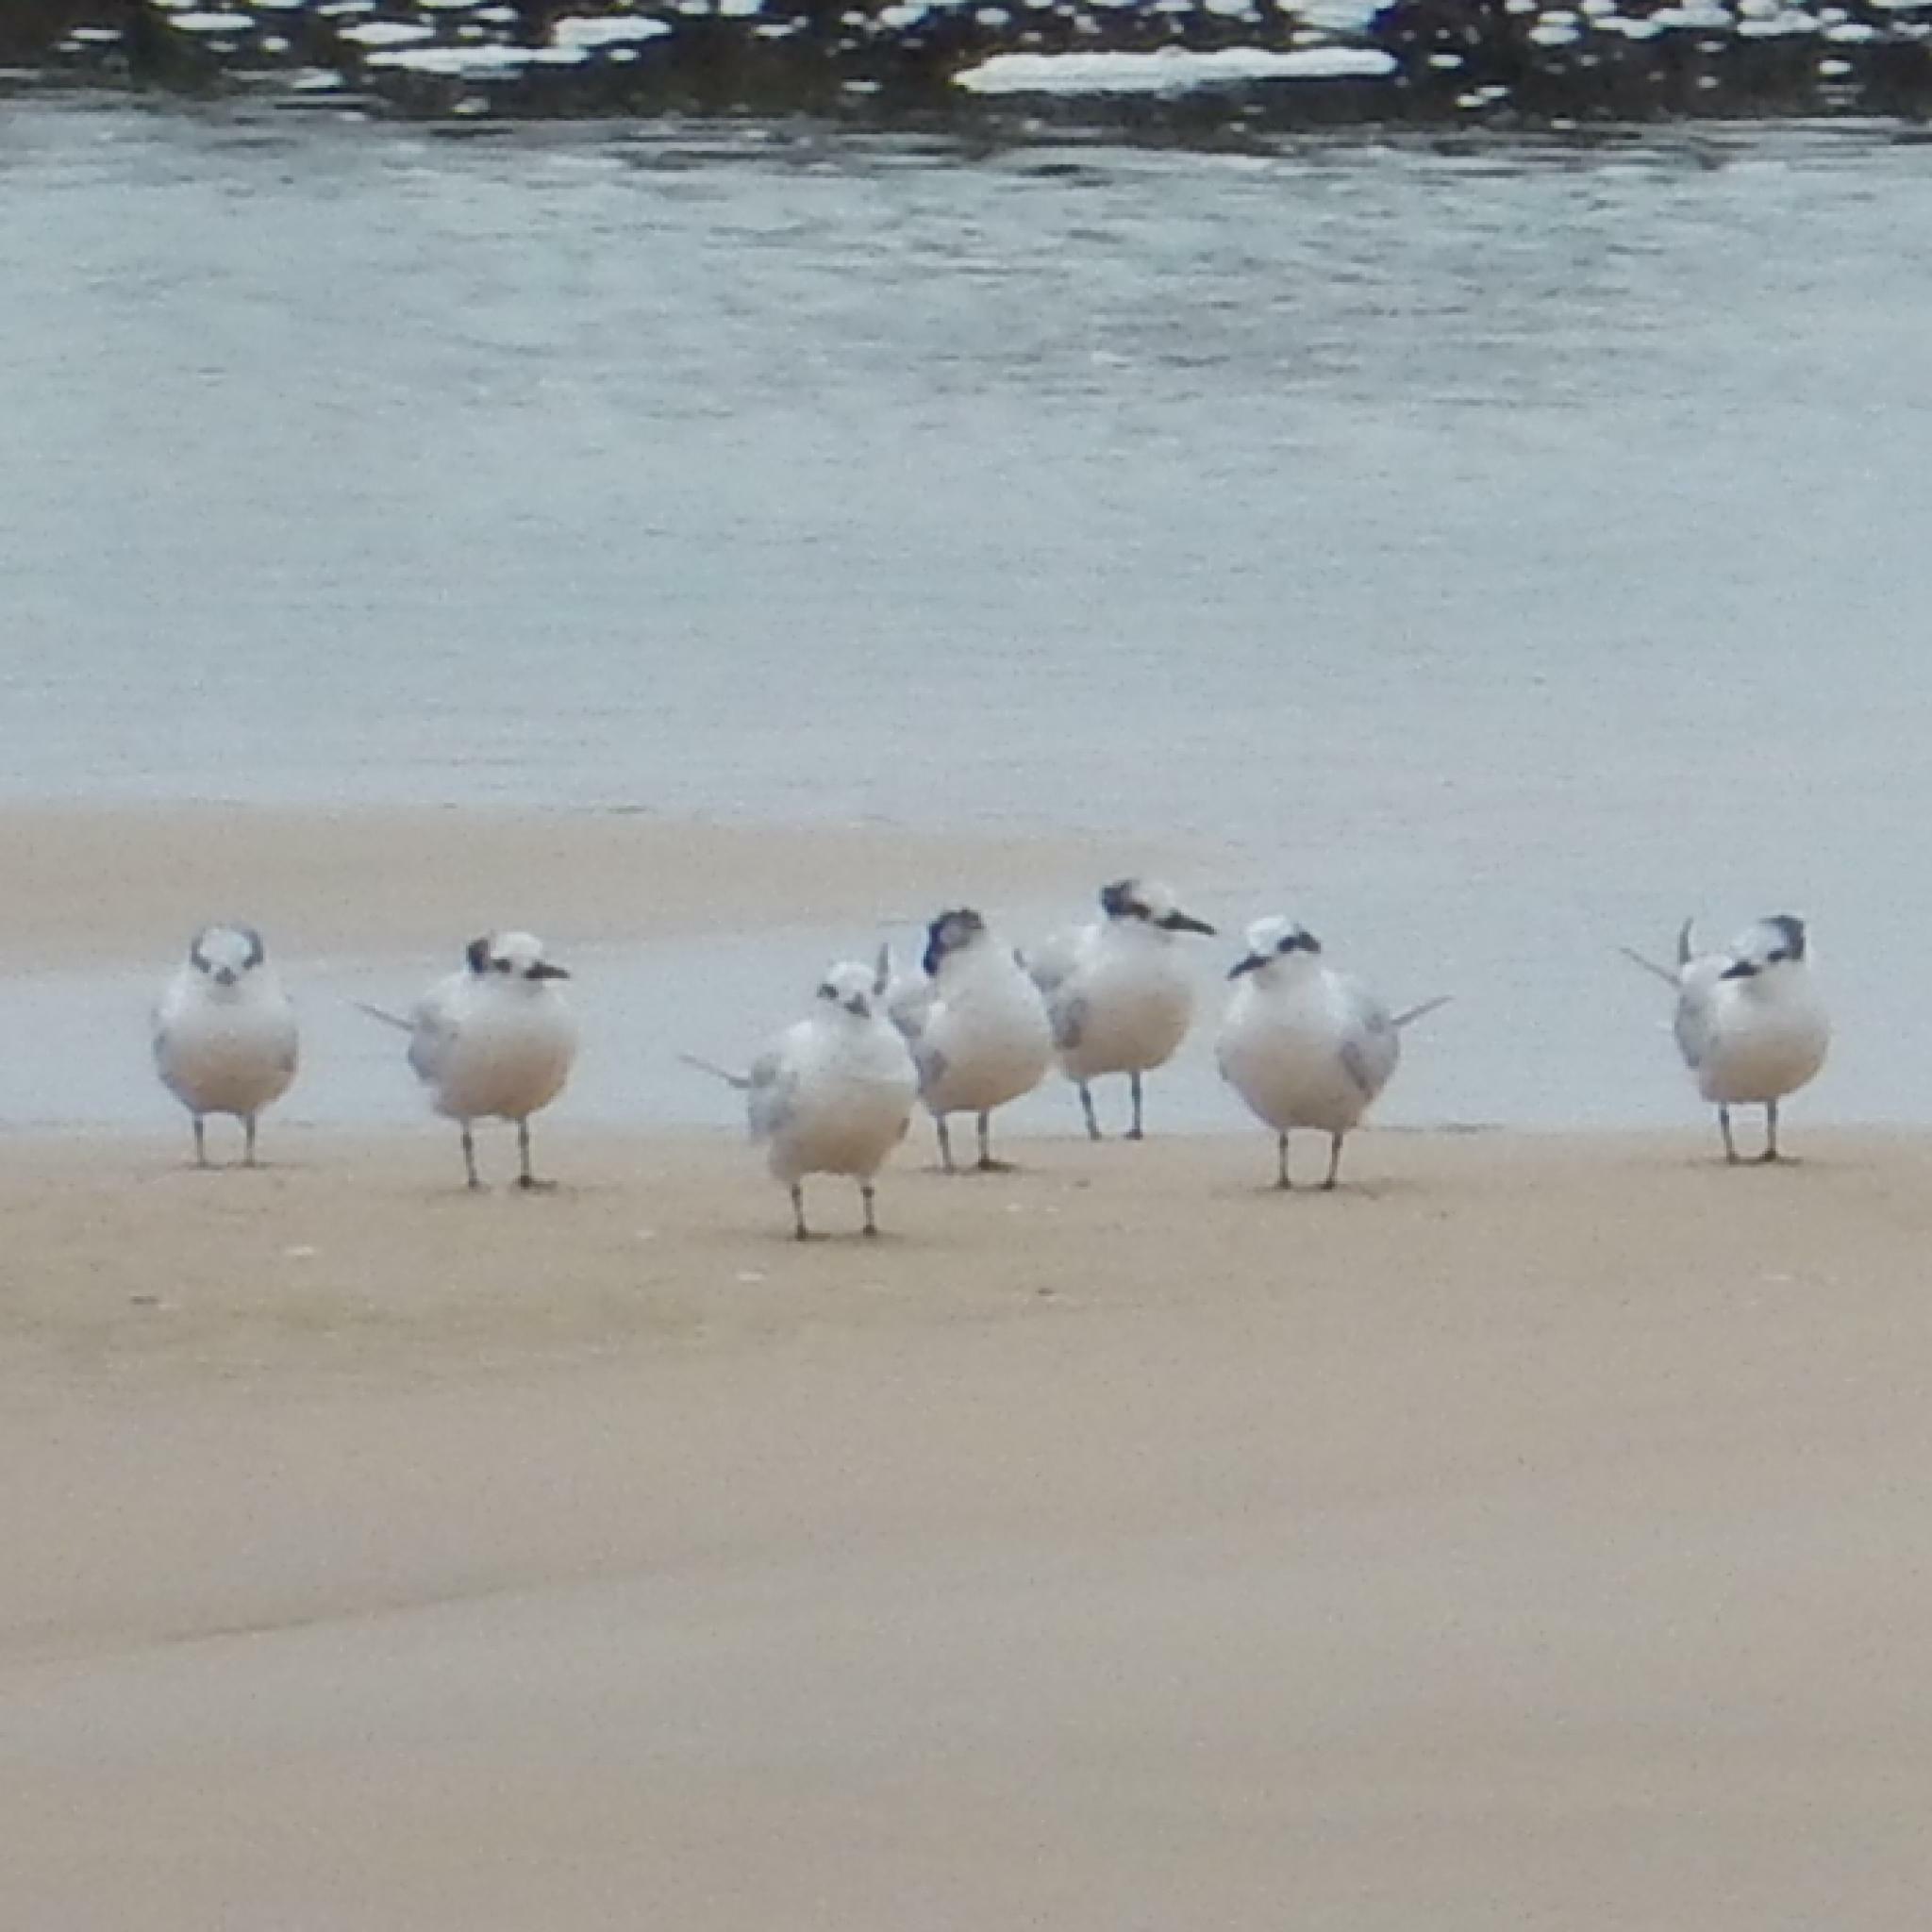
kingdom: Animalia
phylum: Chordata
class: Aves
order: Charadriiformes
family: Laridae
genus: Sterna
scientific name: Sterna hirundo
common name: Common tern
